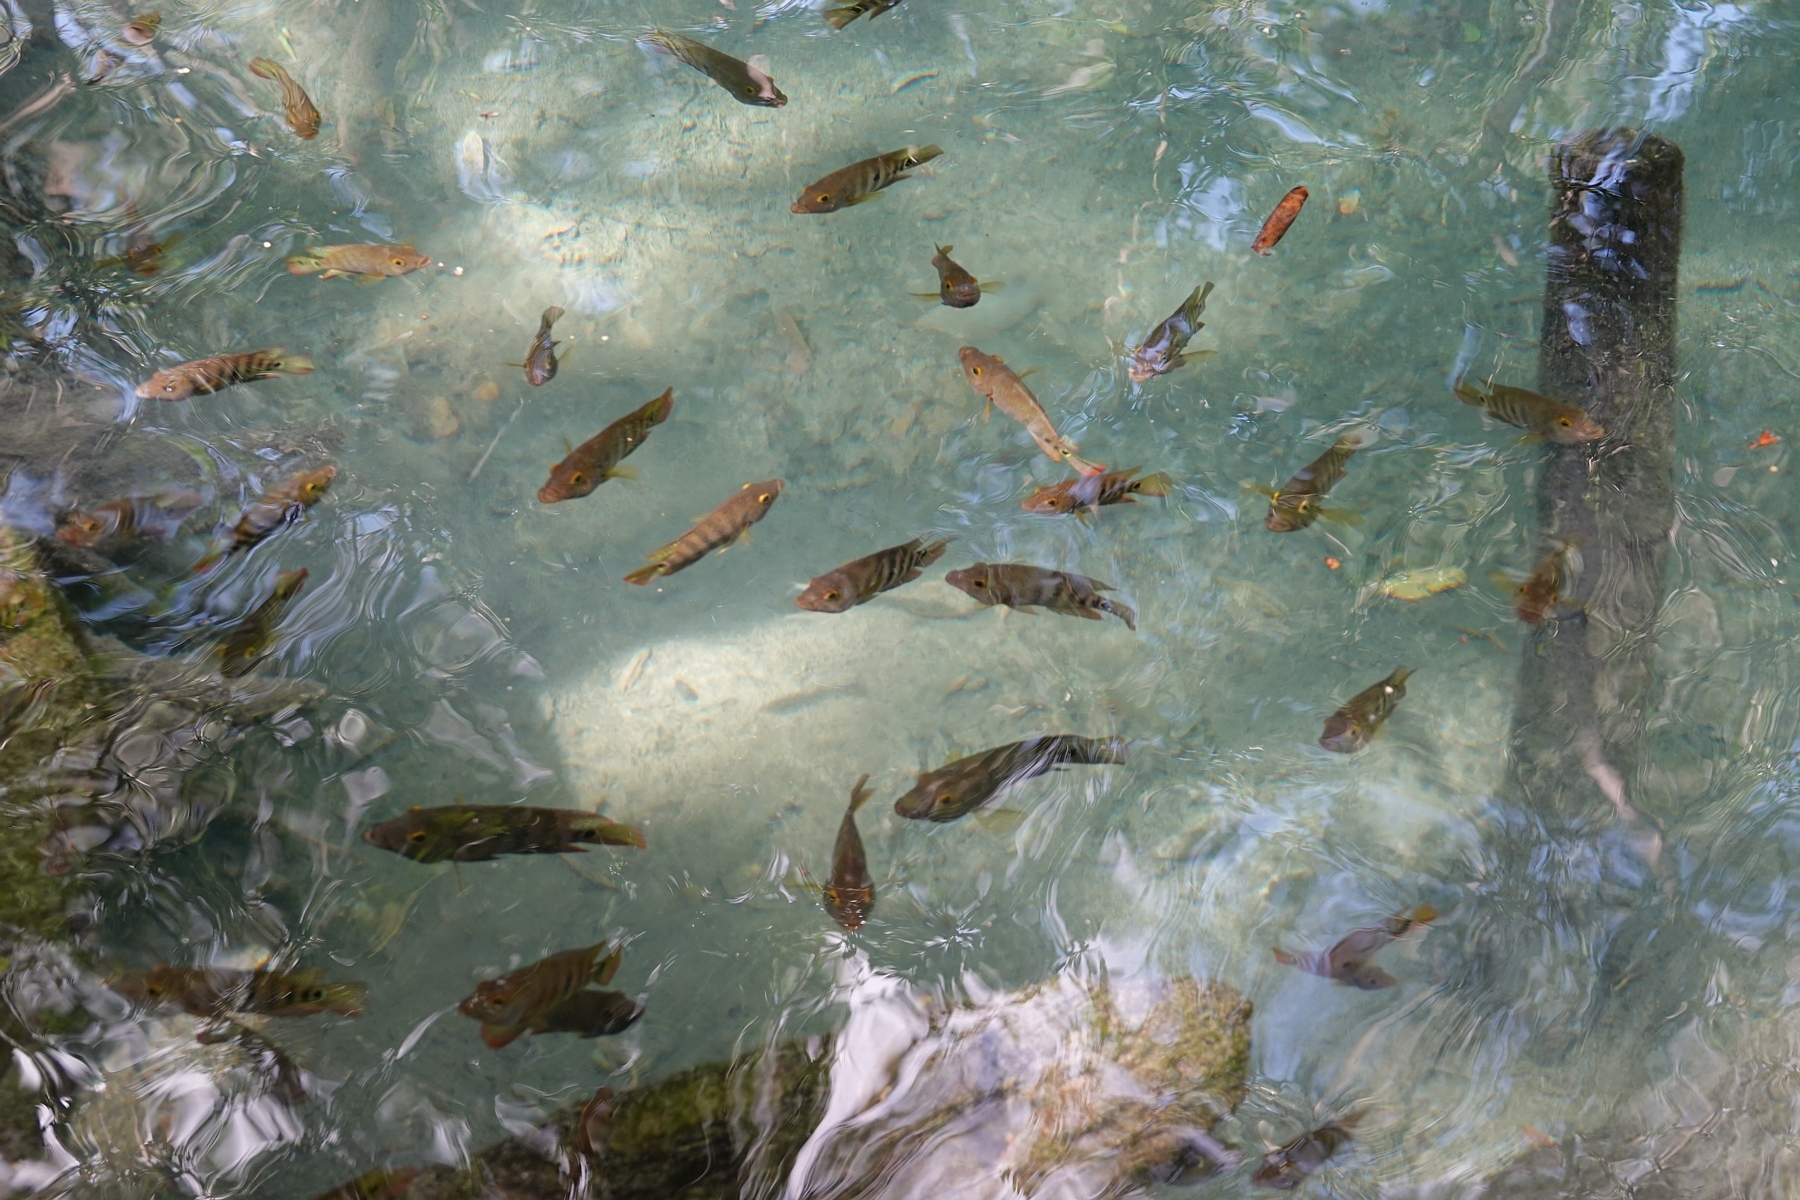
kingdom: Animalia
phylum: Chordata
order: Perciformes
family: Cichlidae
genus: Mayaheros
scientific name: Mayaheros urophthalmus
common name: Mayan cichlid
